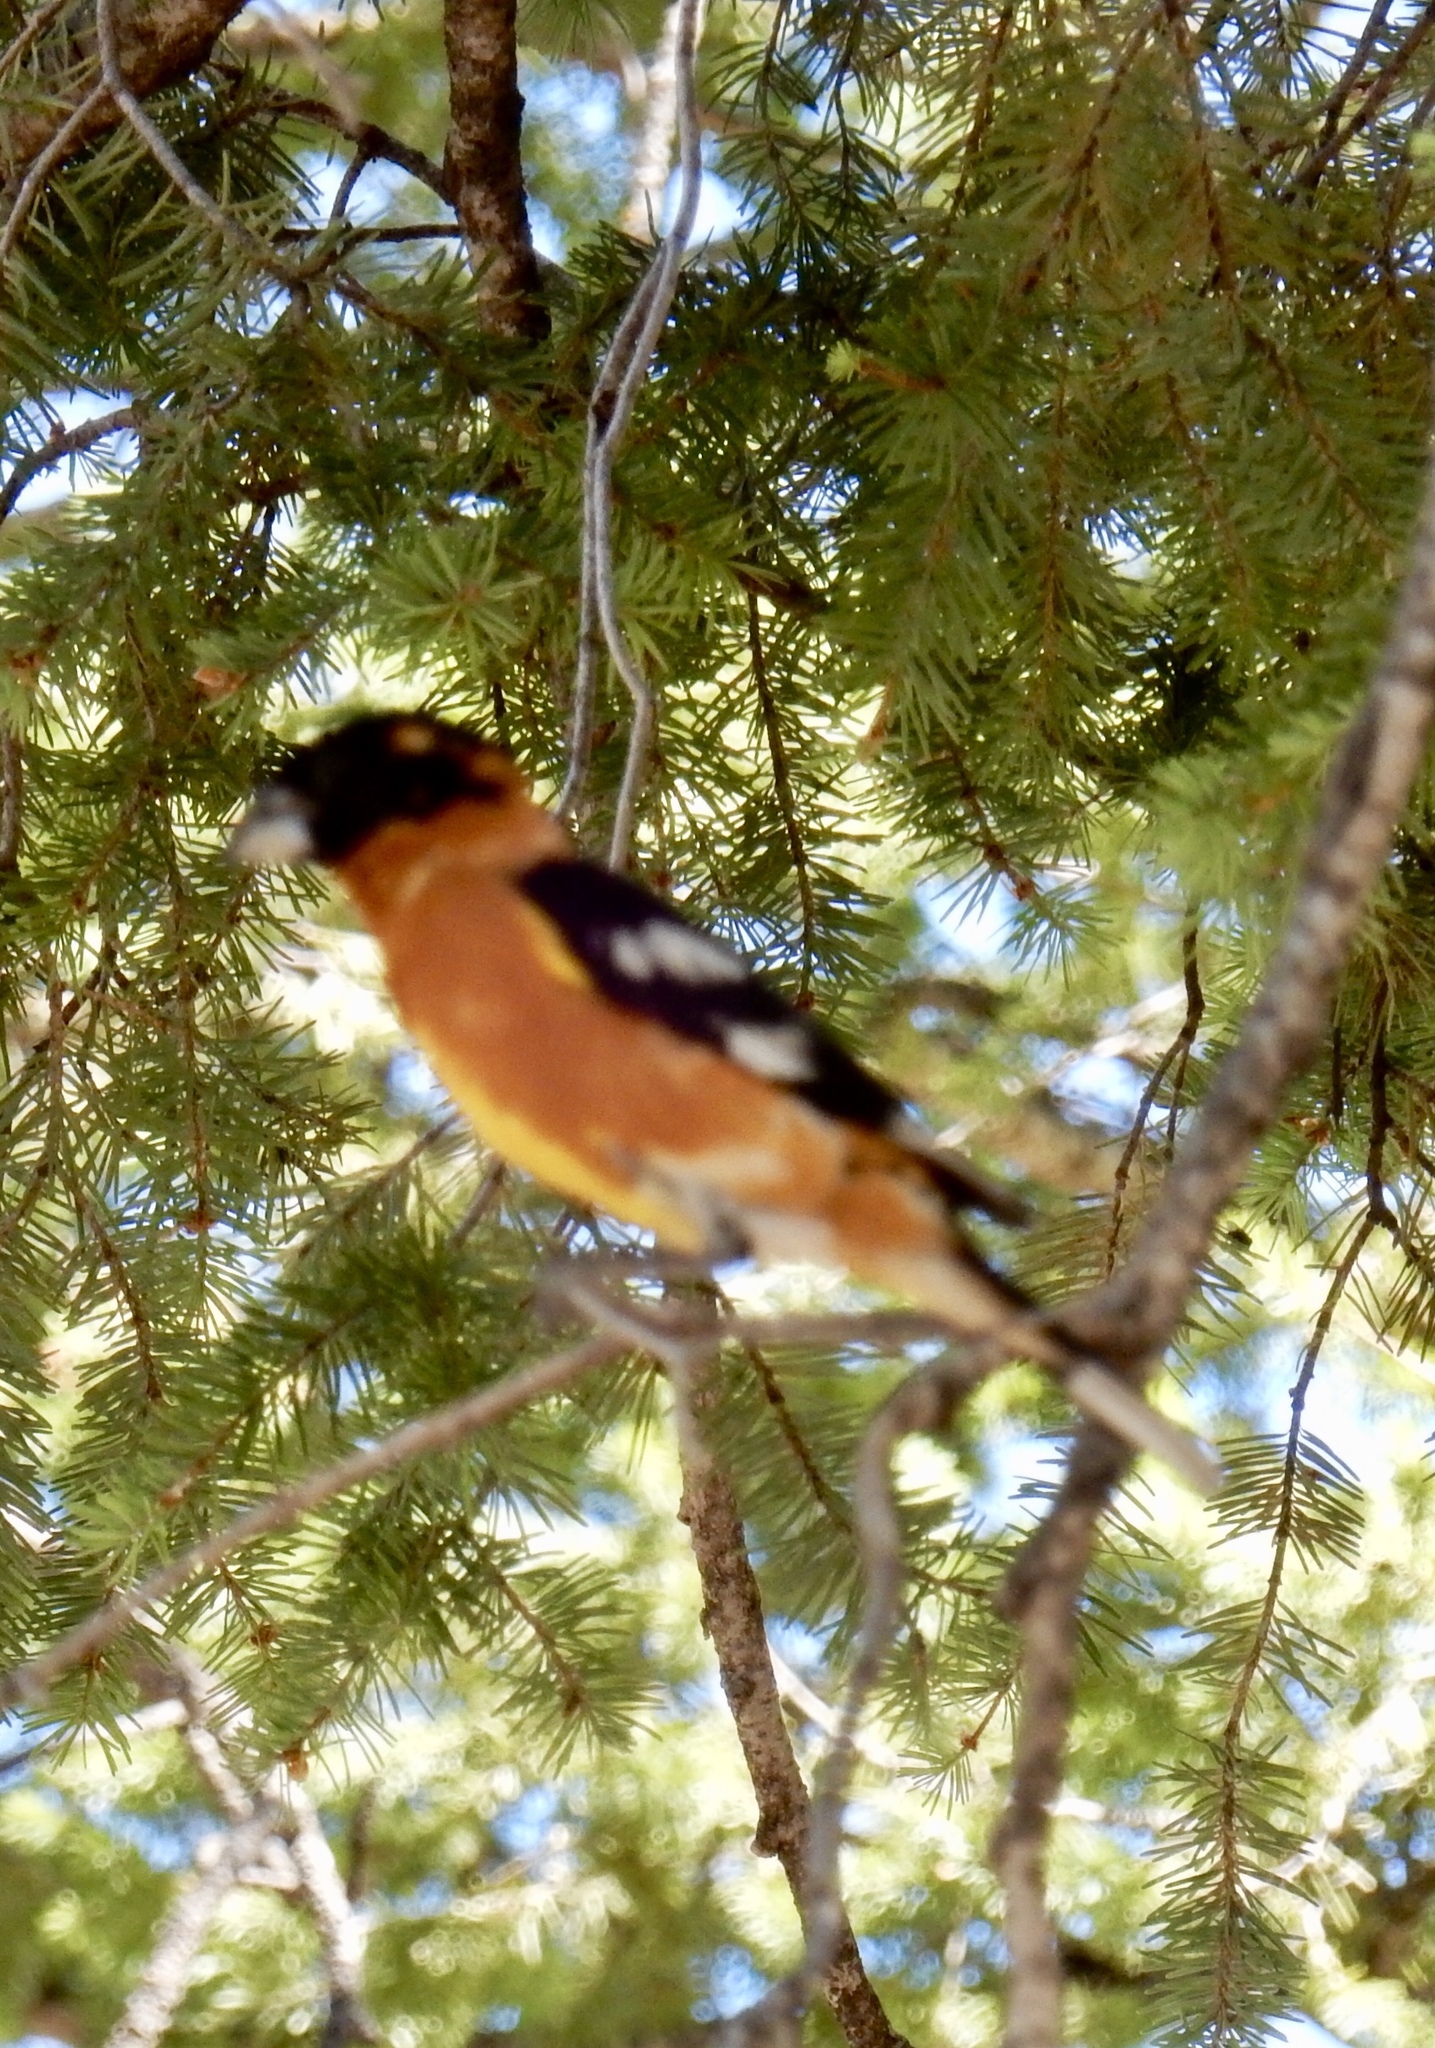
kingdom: Animalia
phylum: Chordata
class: Aves
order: Passeriformes
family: Cardinalidae
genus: Pheucticus
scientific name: Pheucticus melanocephalus
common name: Black-headed grosbeak
